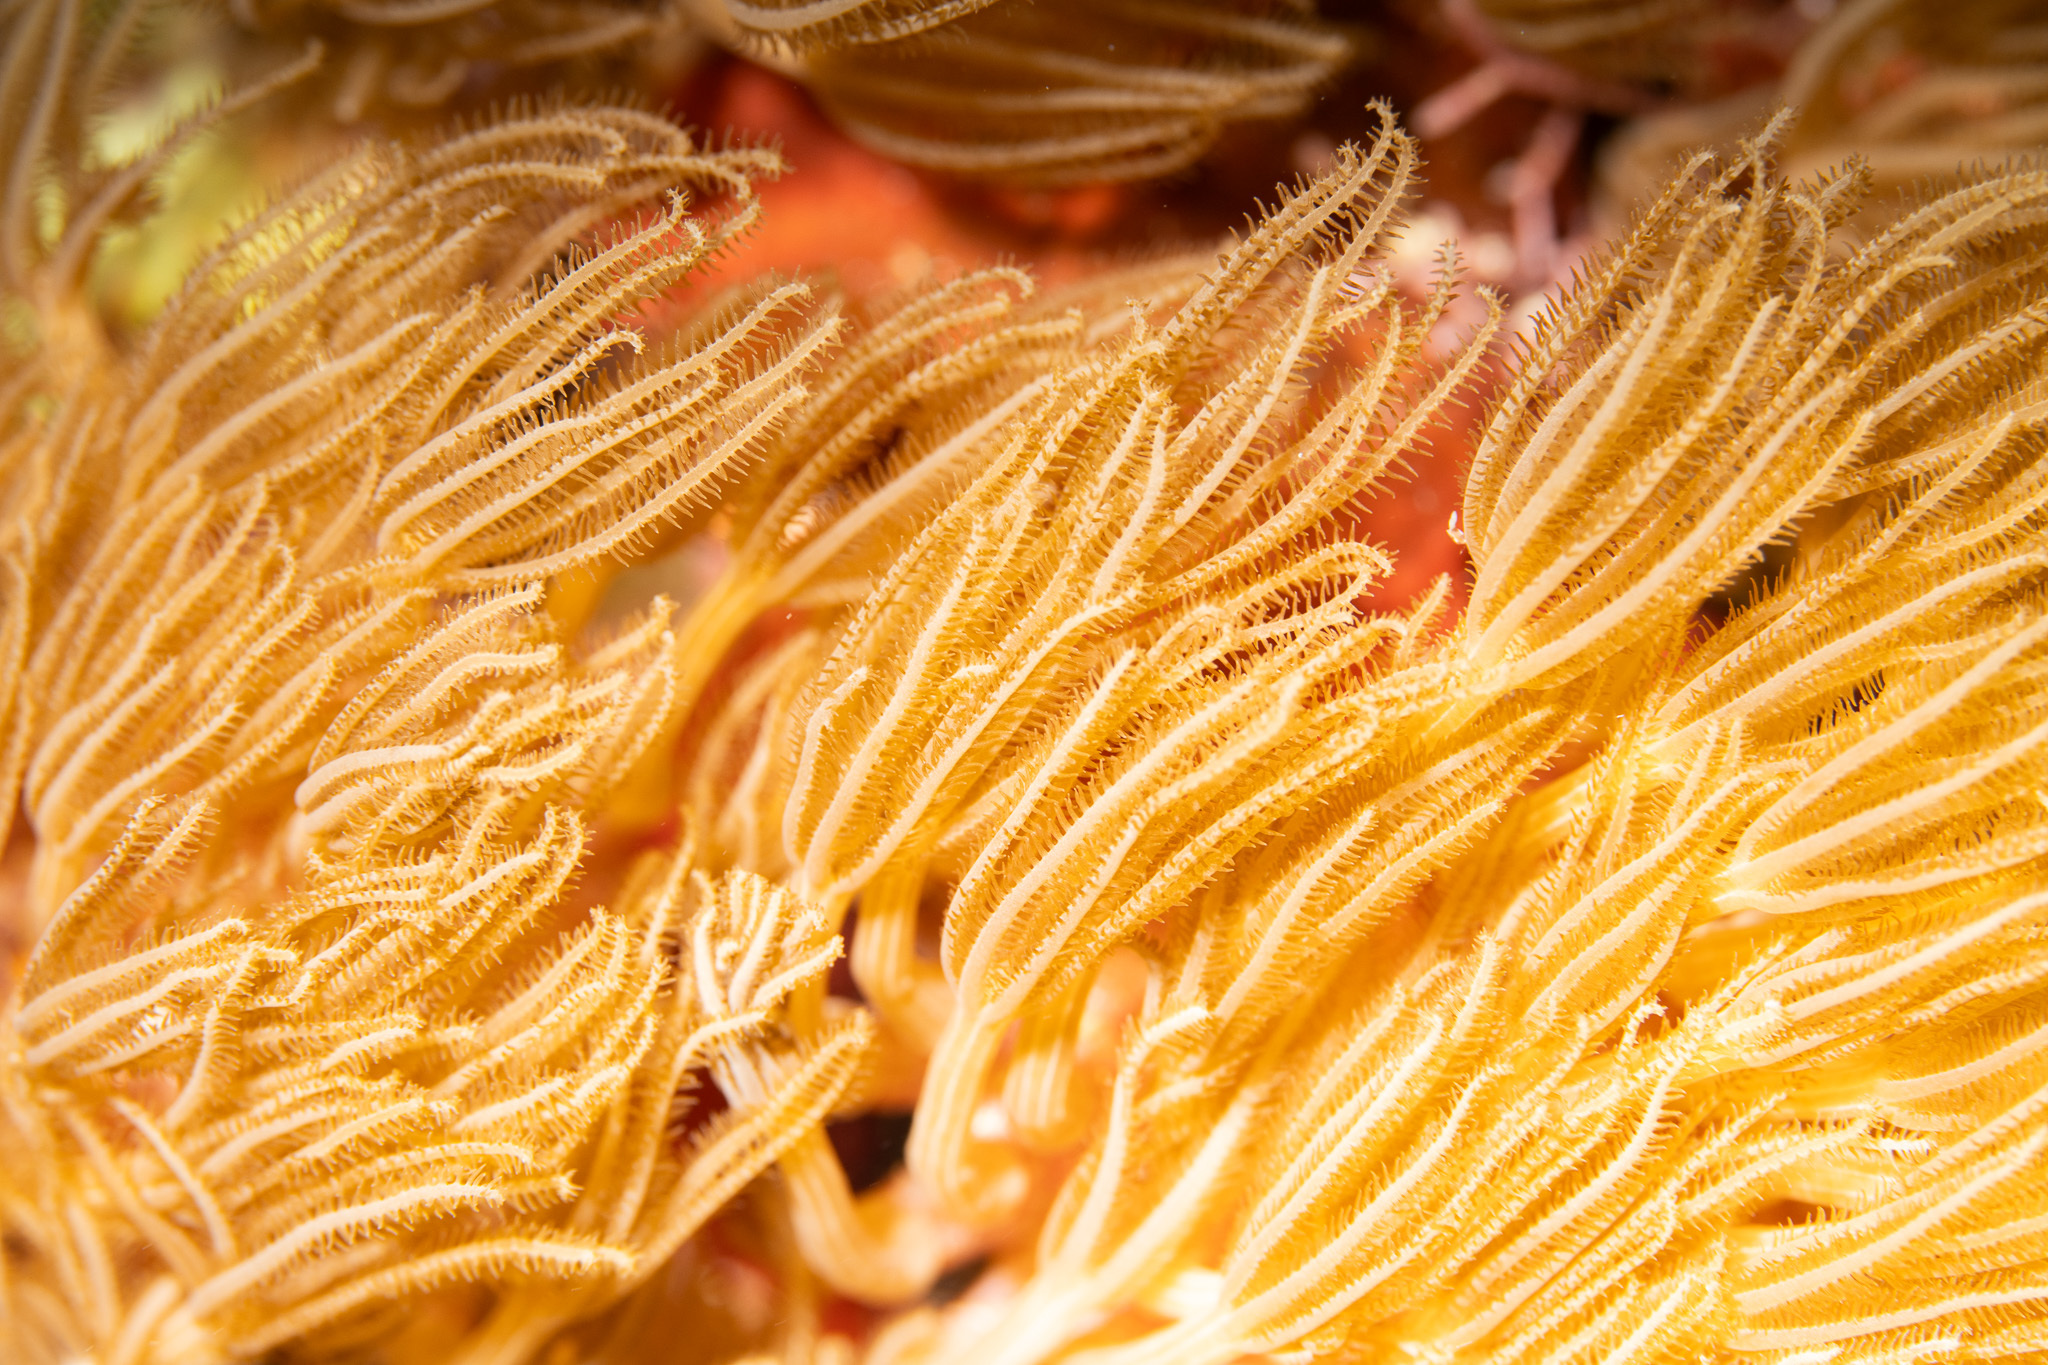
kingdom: Animalia
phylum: Cnidaria
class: Anthozoa
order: Scleralcyonacea
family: Erythropodiidae
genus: Erythropodium
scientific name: Erythropodium caribaeorum
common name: Encrusting gorgonian
